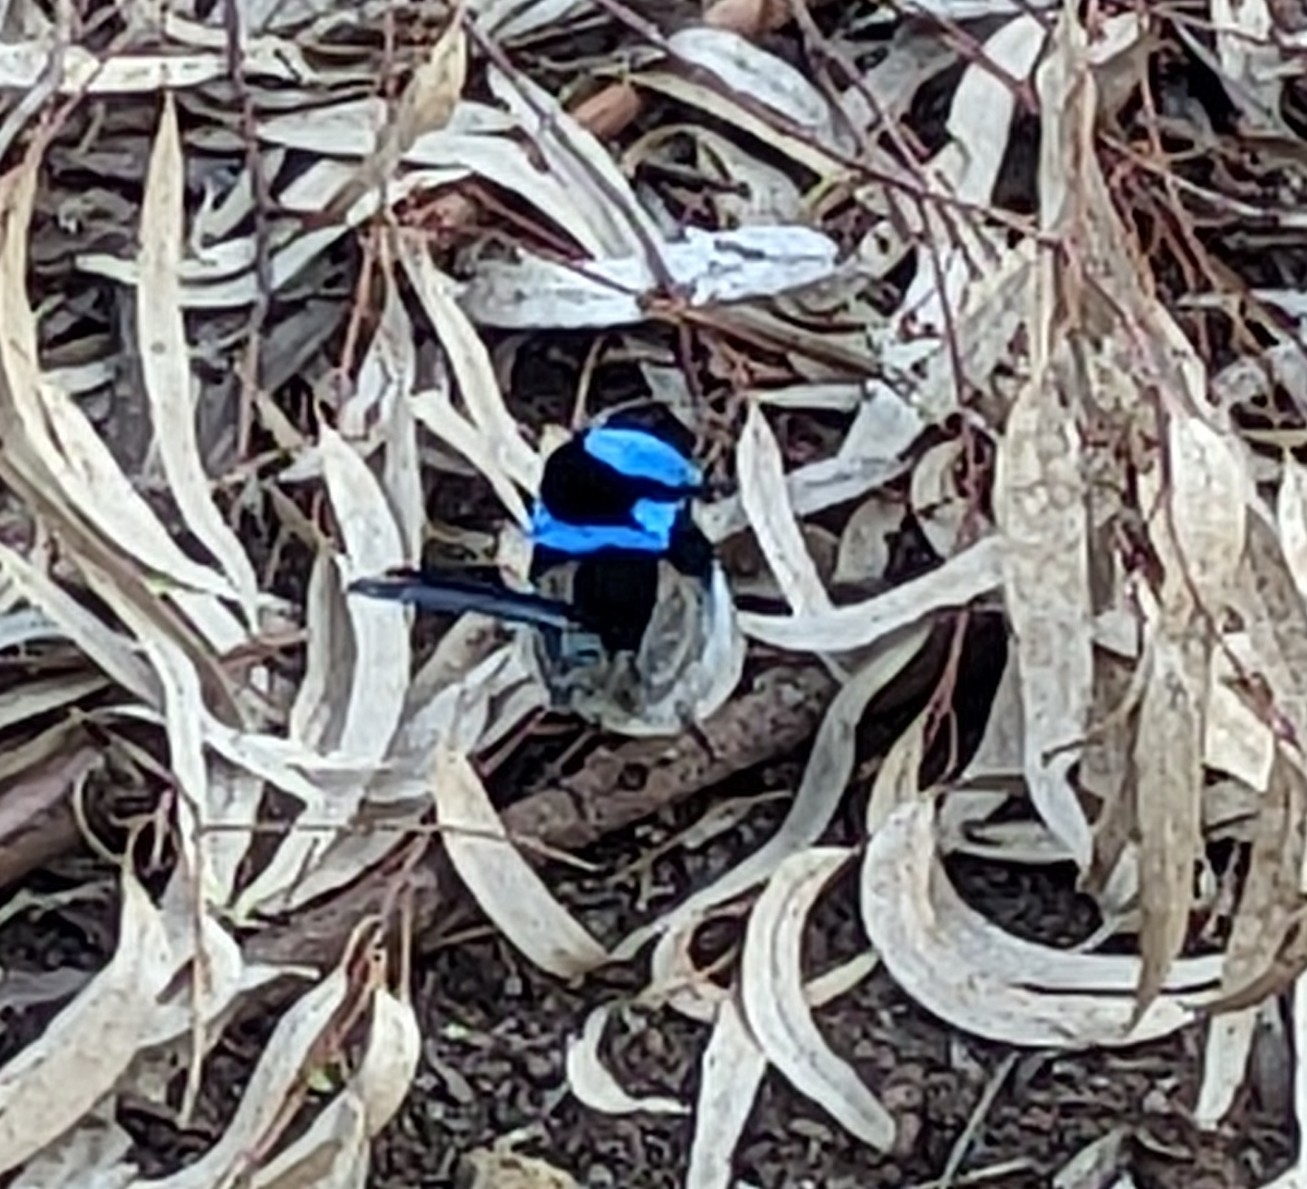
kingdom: Animalia
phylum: Chordata
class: Aves
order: Passeriformes
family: Maluridae
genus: Malurus
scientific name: Malurus cyaneus
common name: Superb fairywren
